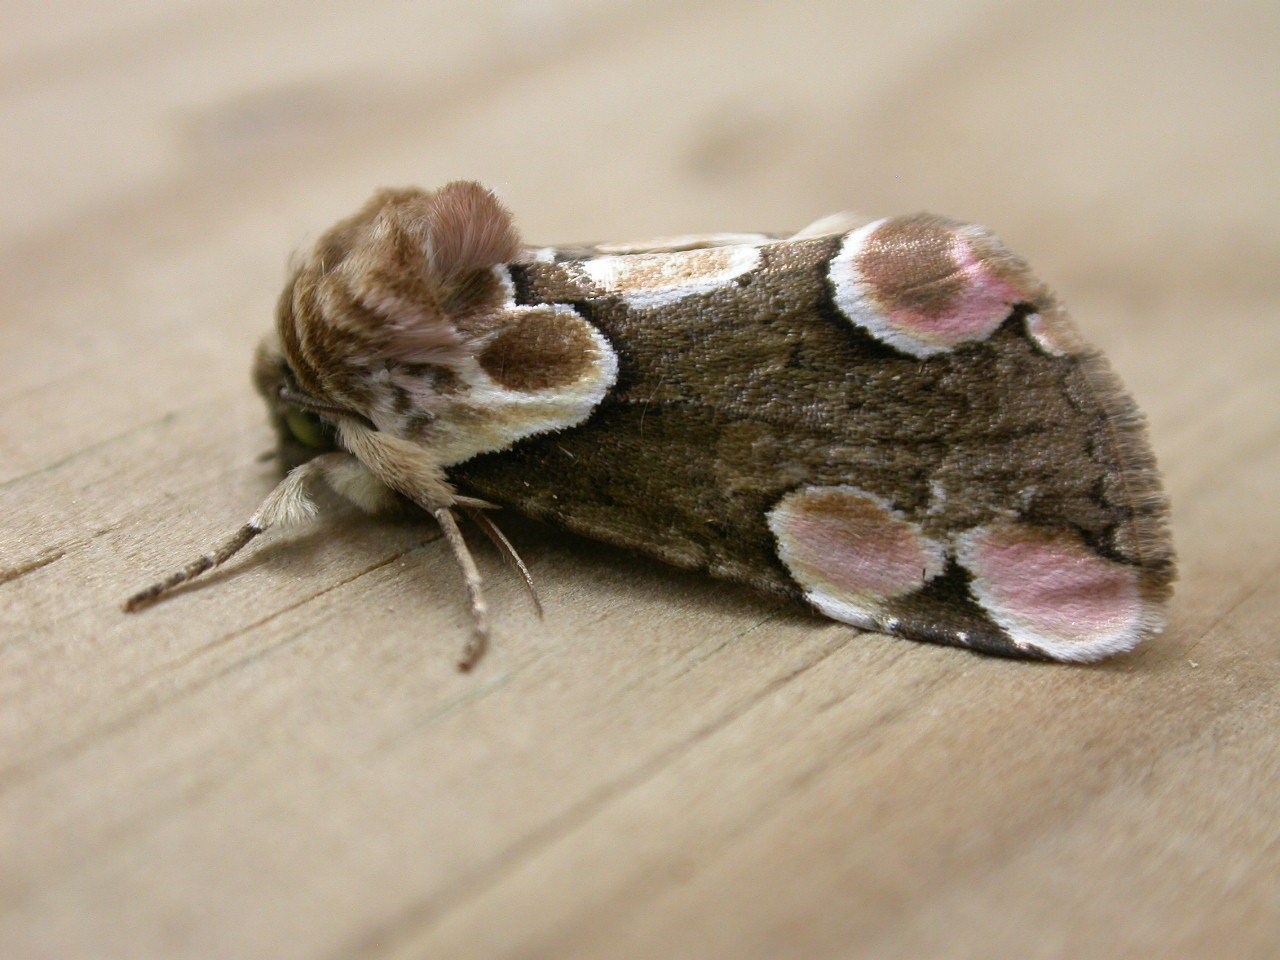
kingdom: Animalia
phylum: Arthropoda
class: Insecta
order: Lepidoptera
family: Drepanidae
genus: Thyatira
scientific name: Thyatira batis
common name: Peach blossom
